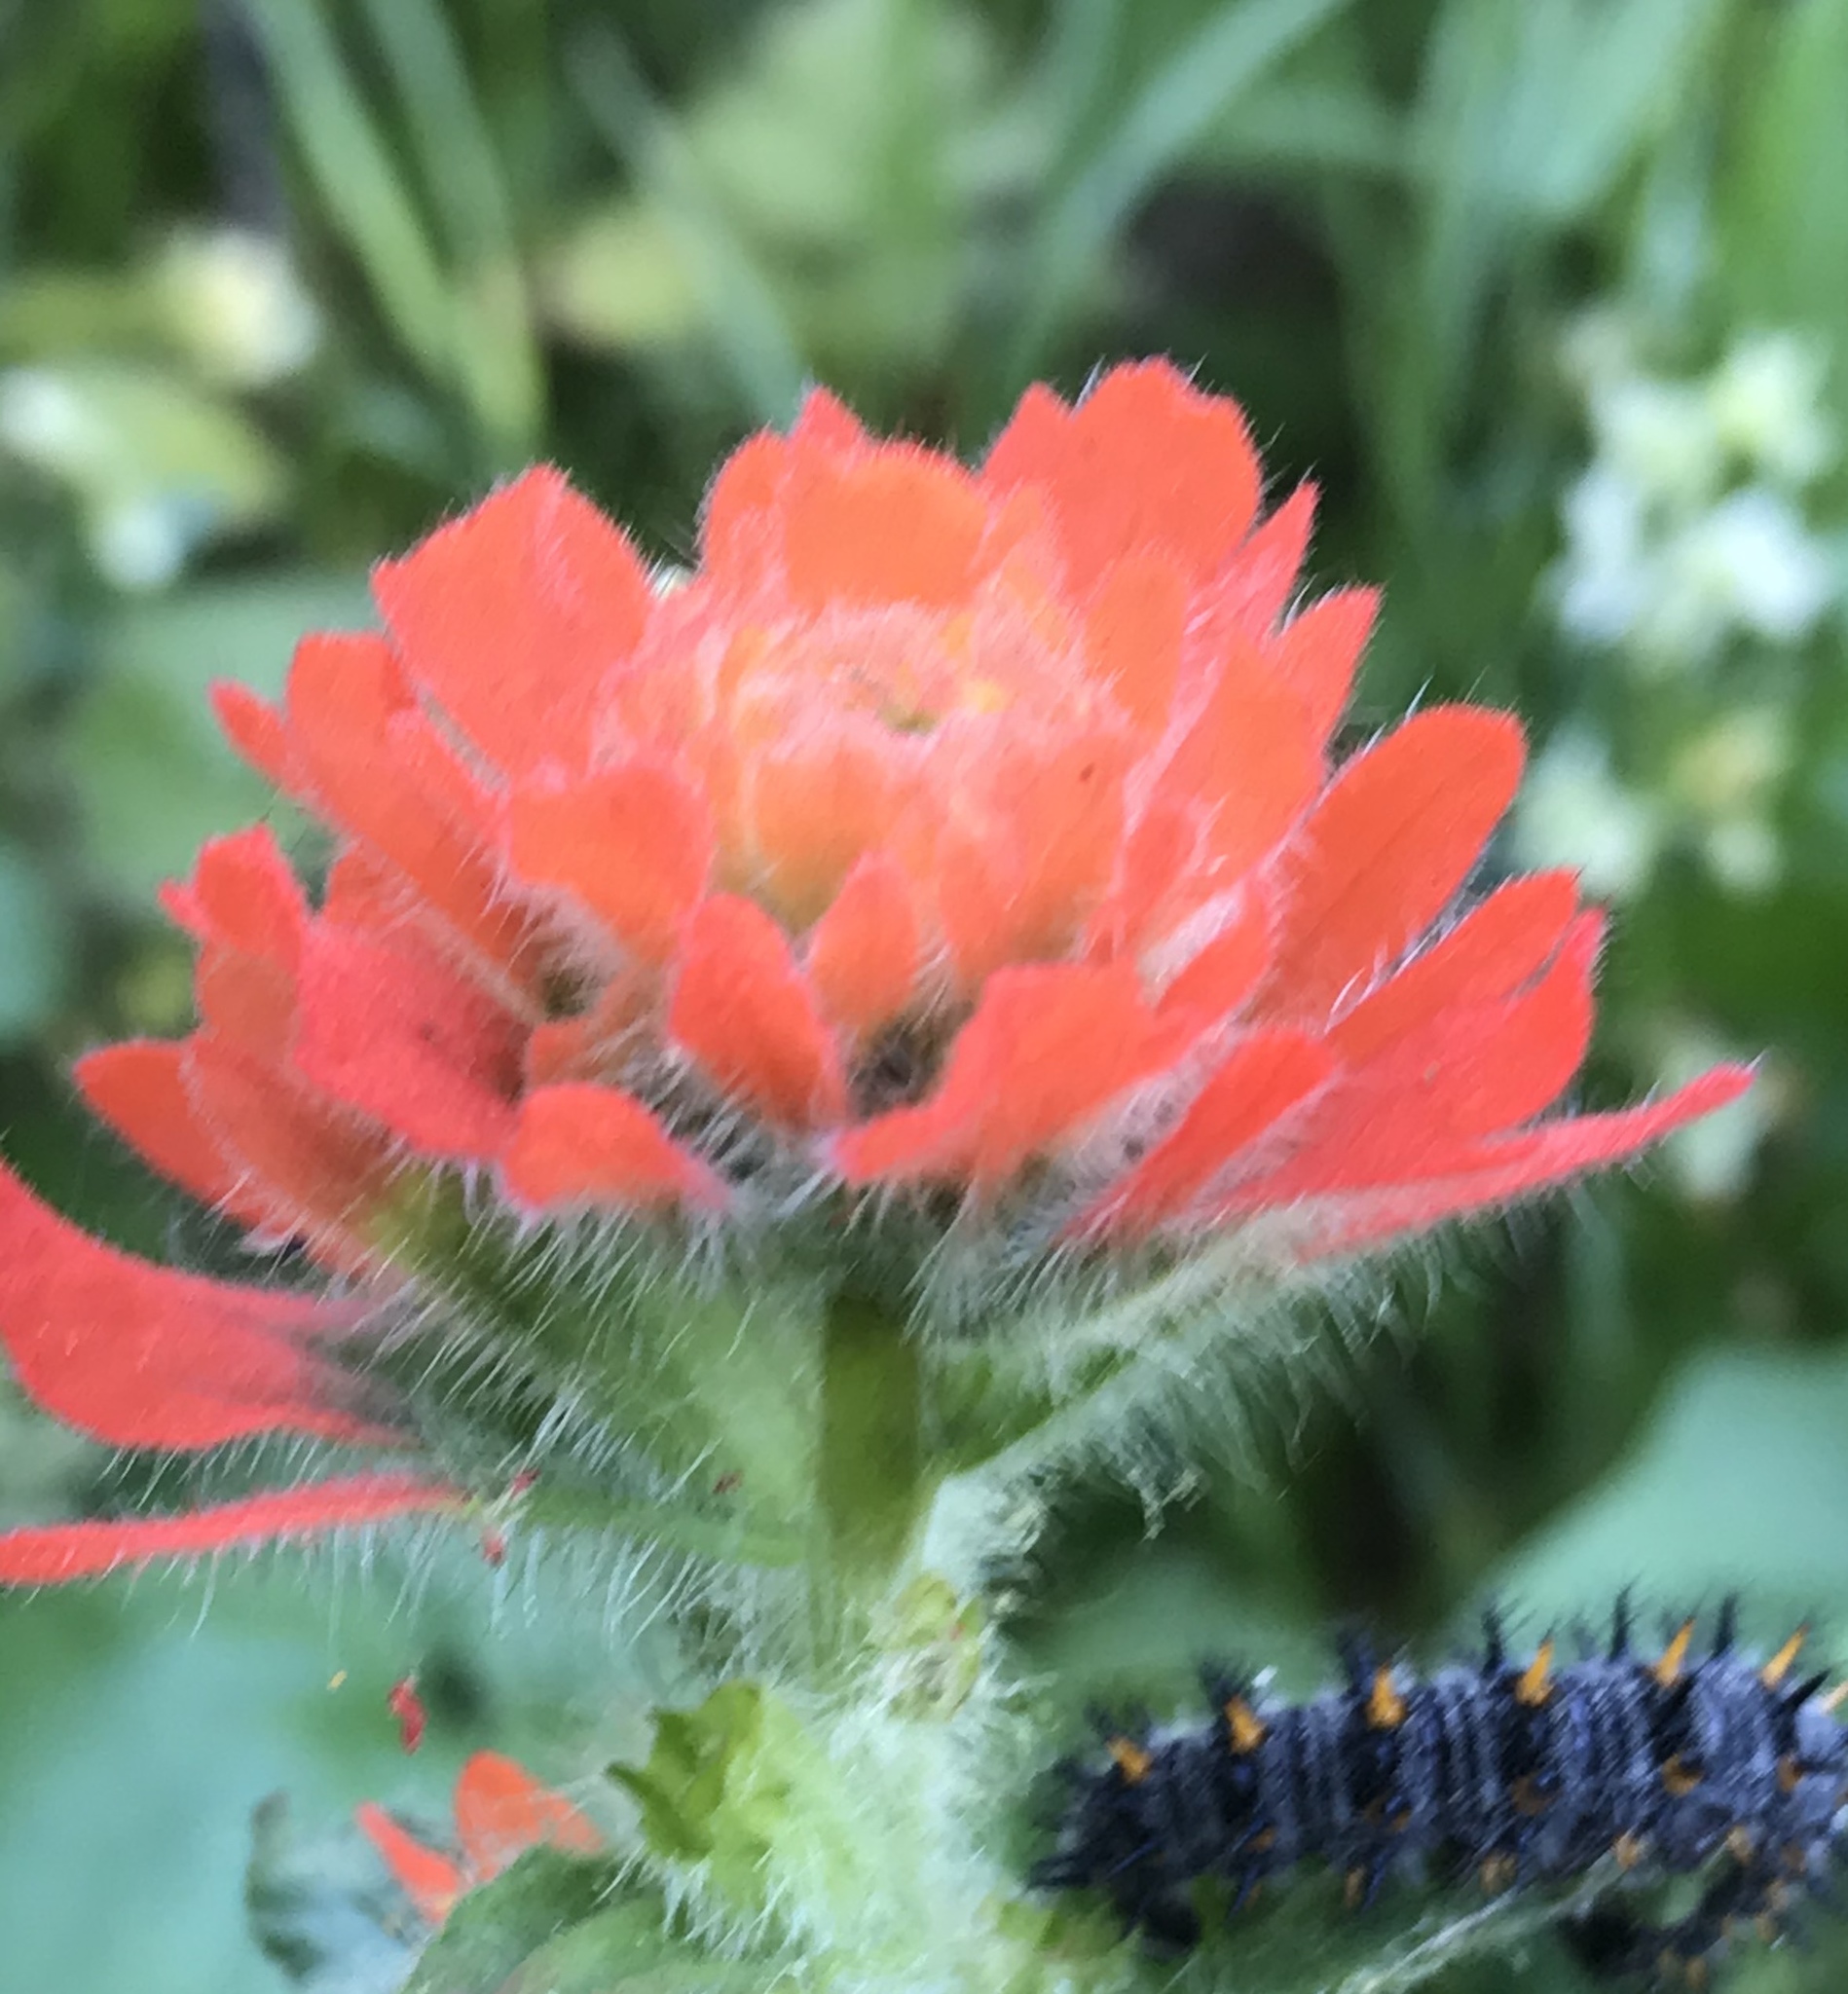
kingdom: Plantae
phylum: Tracheophyta
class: Magnoliopsida
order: Lamiales
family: Orobanchaceae
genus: Castilleja
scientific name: Castilleja affinis
